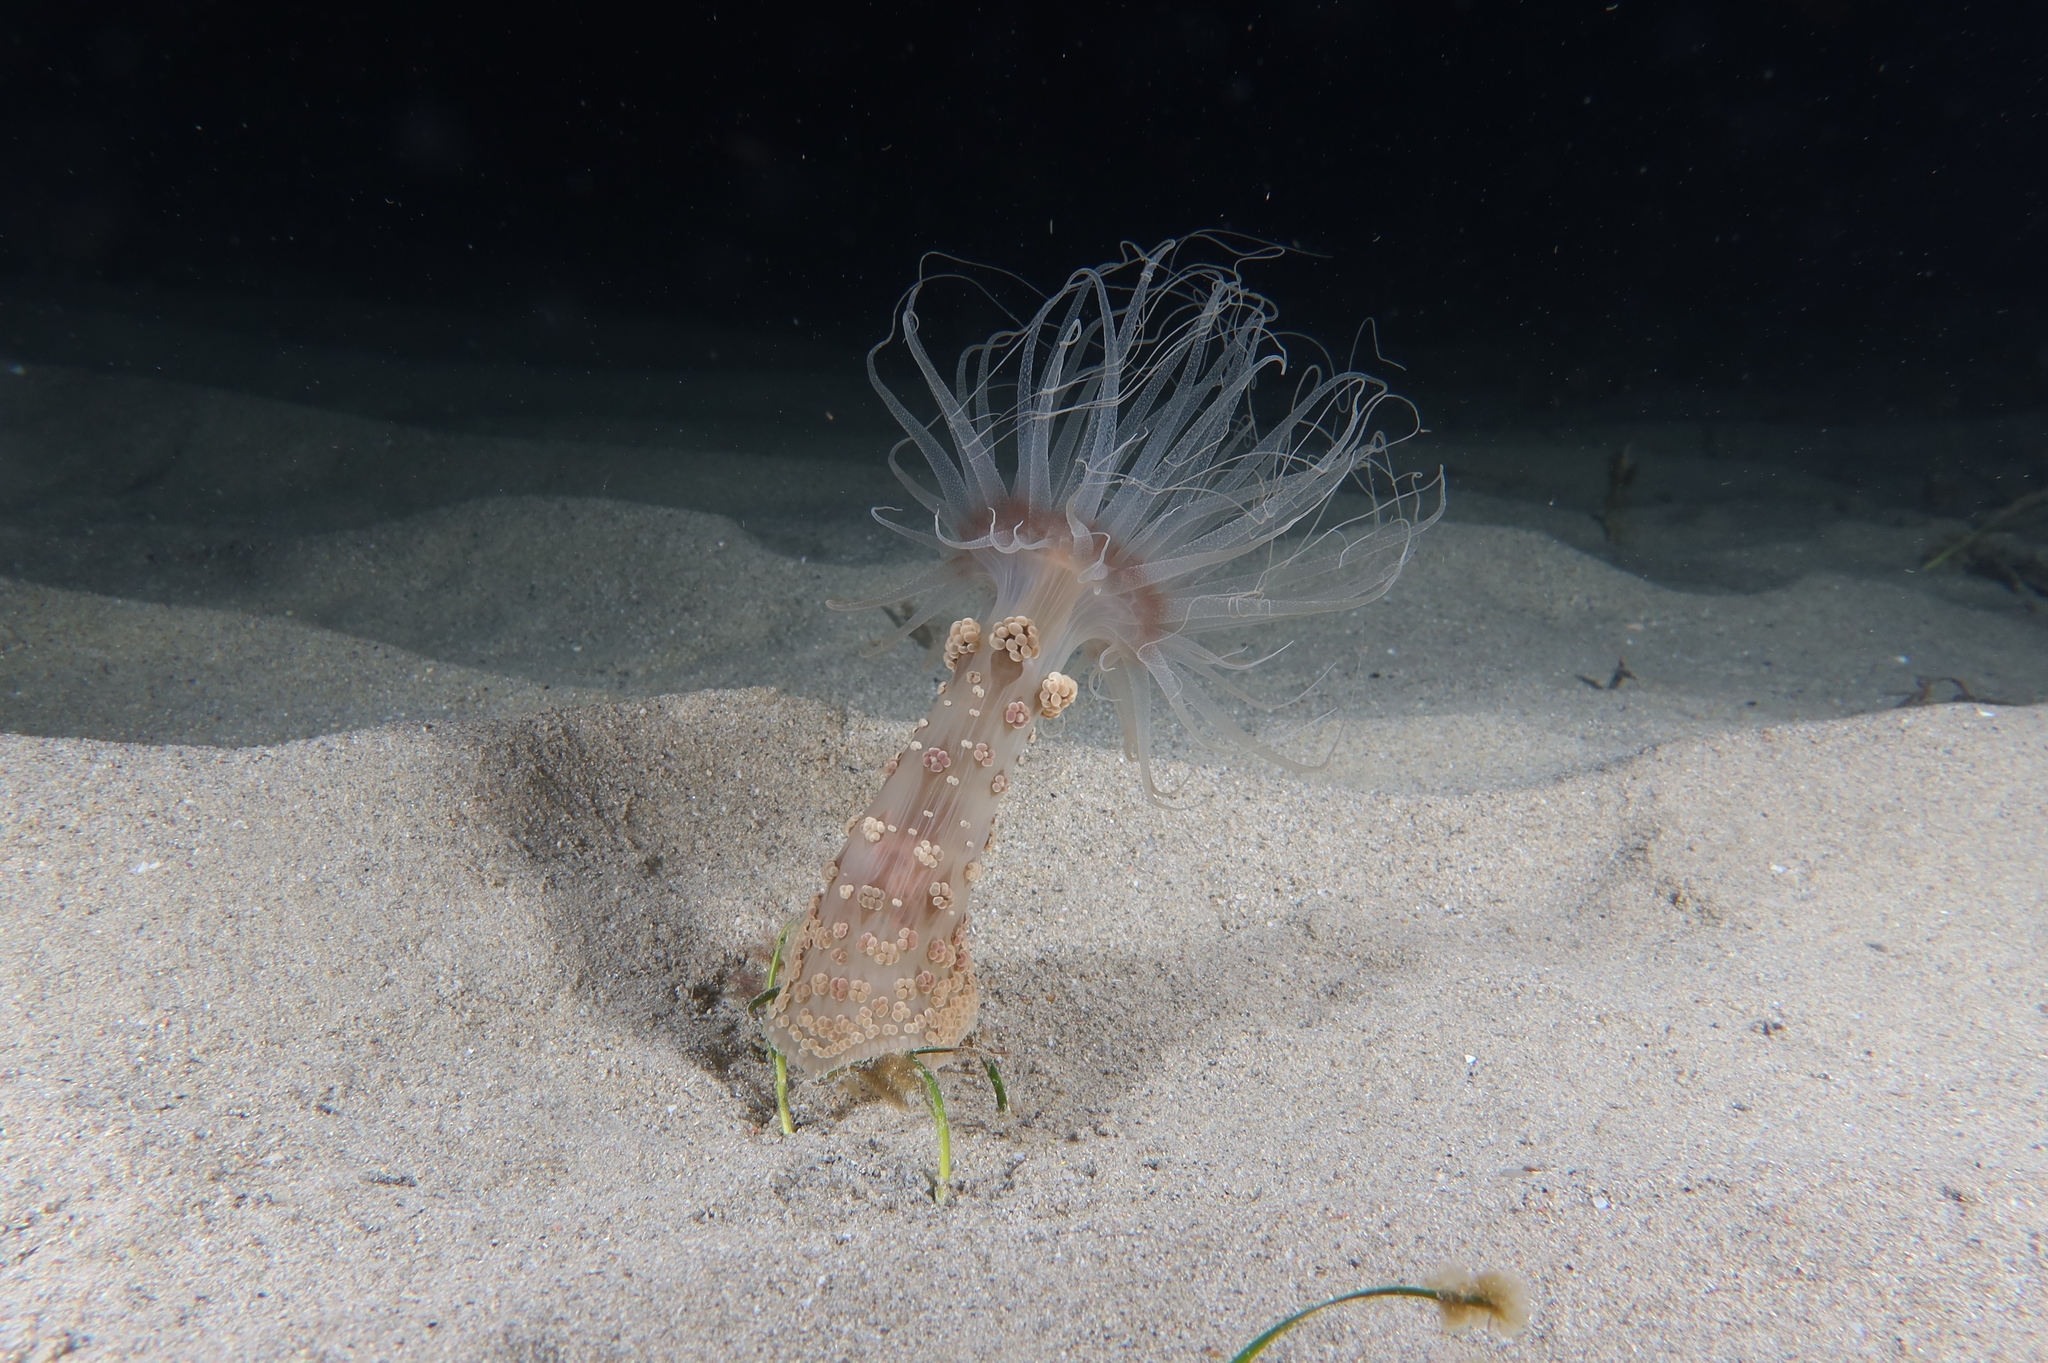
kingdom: Animalia
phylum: Cnidaria
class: Anthozoa
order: Actiniaria
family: Aliciidae
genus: Alicia
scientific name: Alicia mirabilis
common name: Berried anemone
